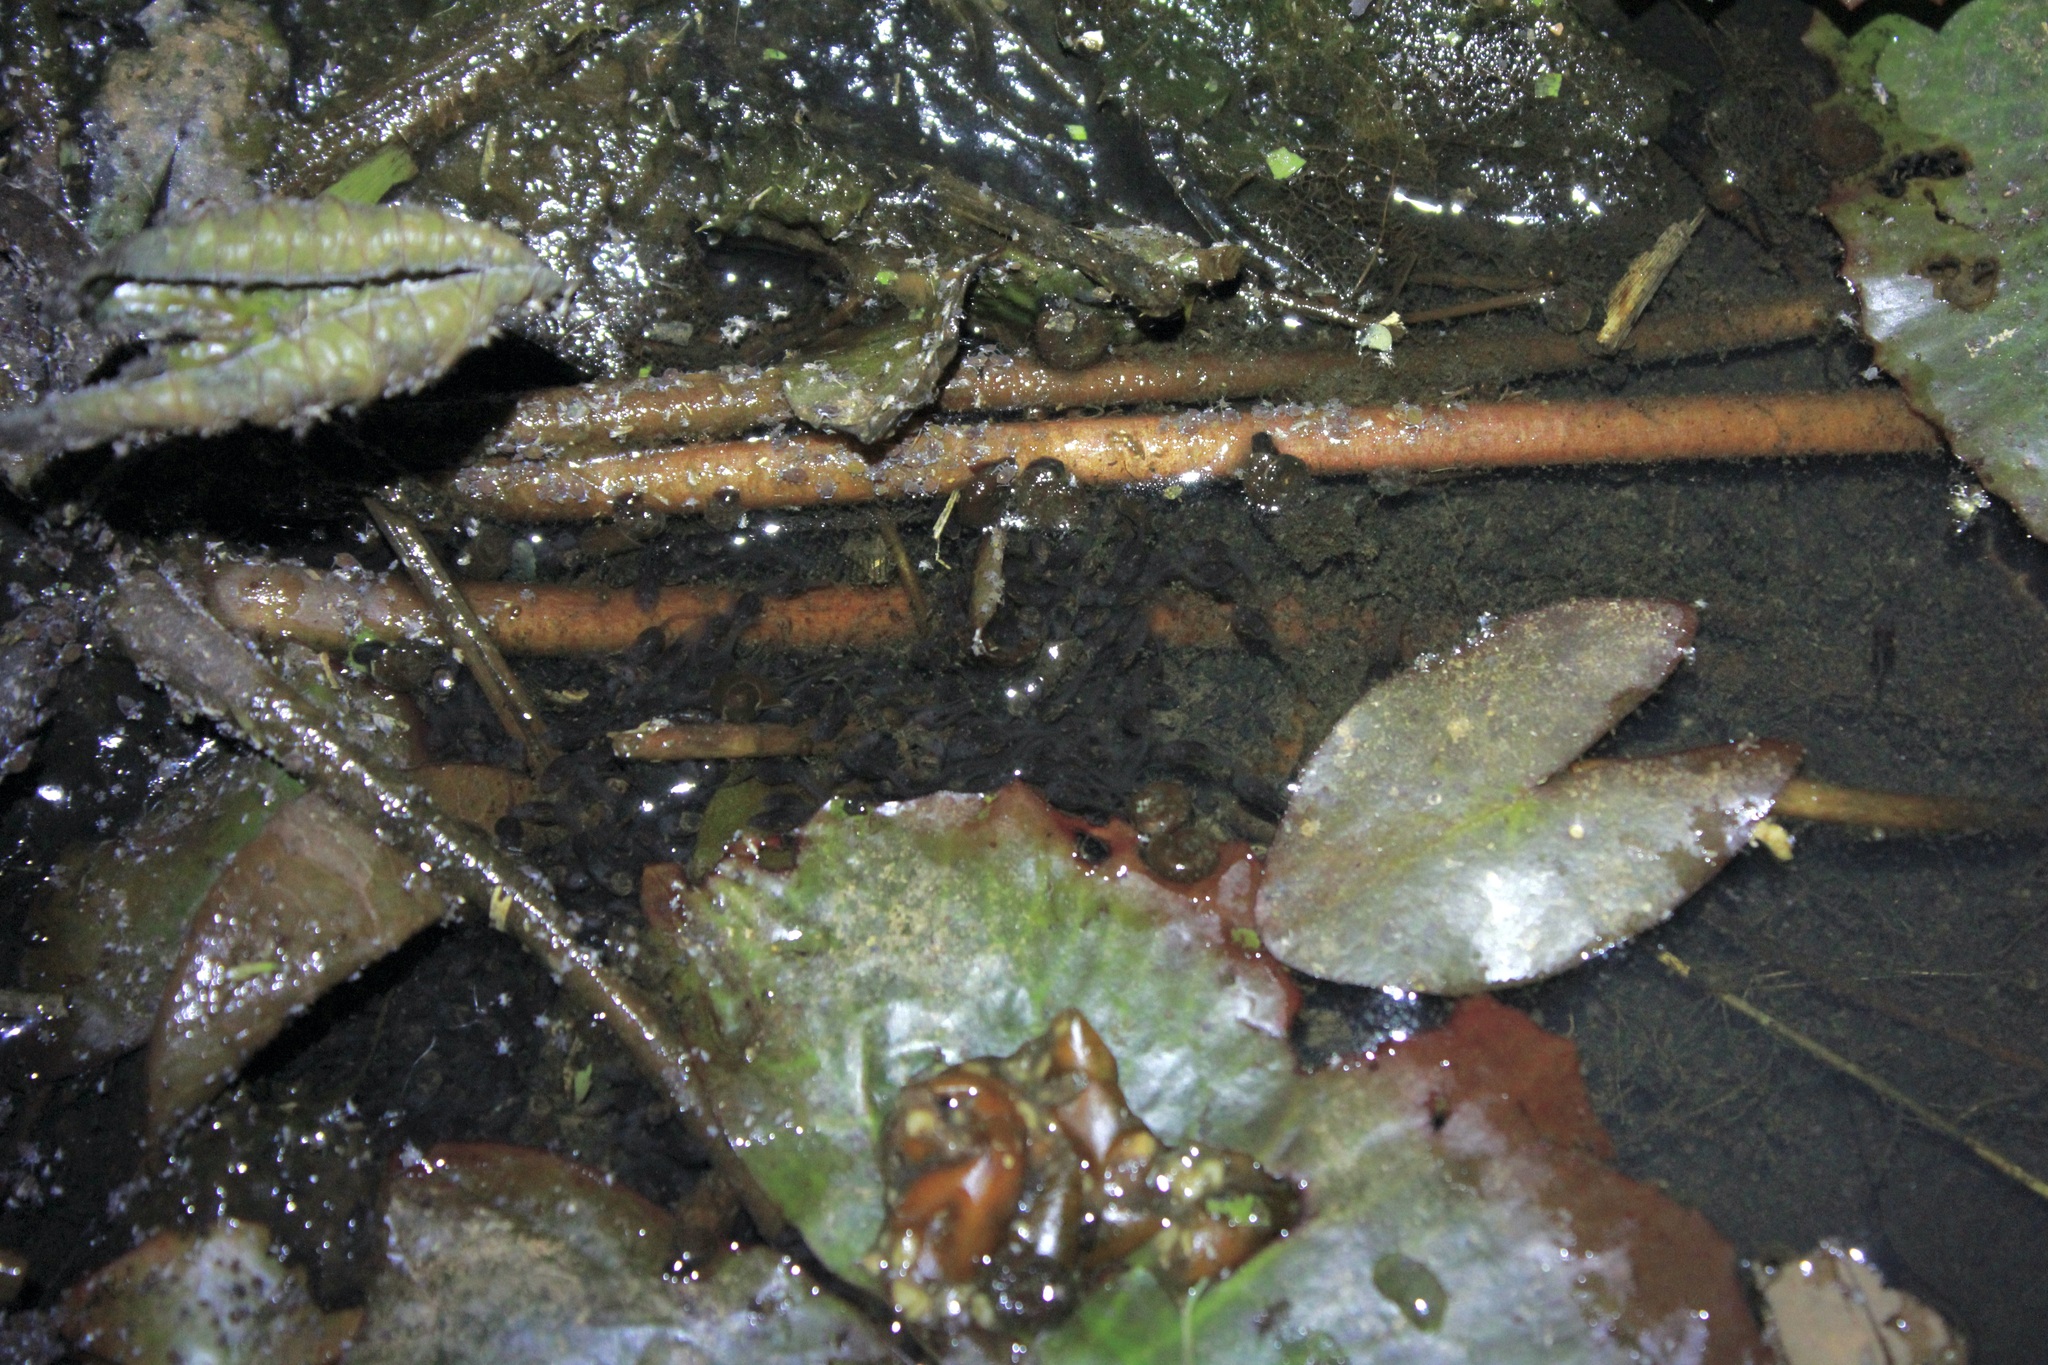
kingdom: Animalia
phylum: Chordata
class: Amphibia
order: Anura
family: Leptodactylidae
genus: Leptodactylus
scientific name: Leptodactylus validus
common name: Smooth-skinned ditch frog
